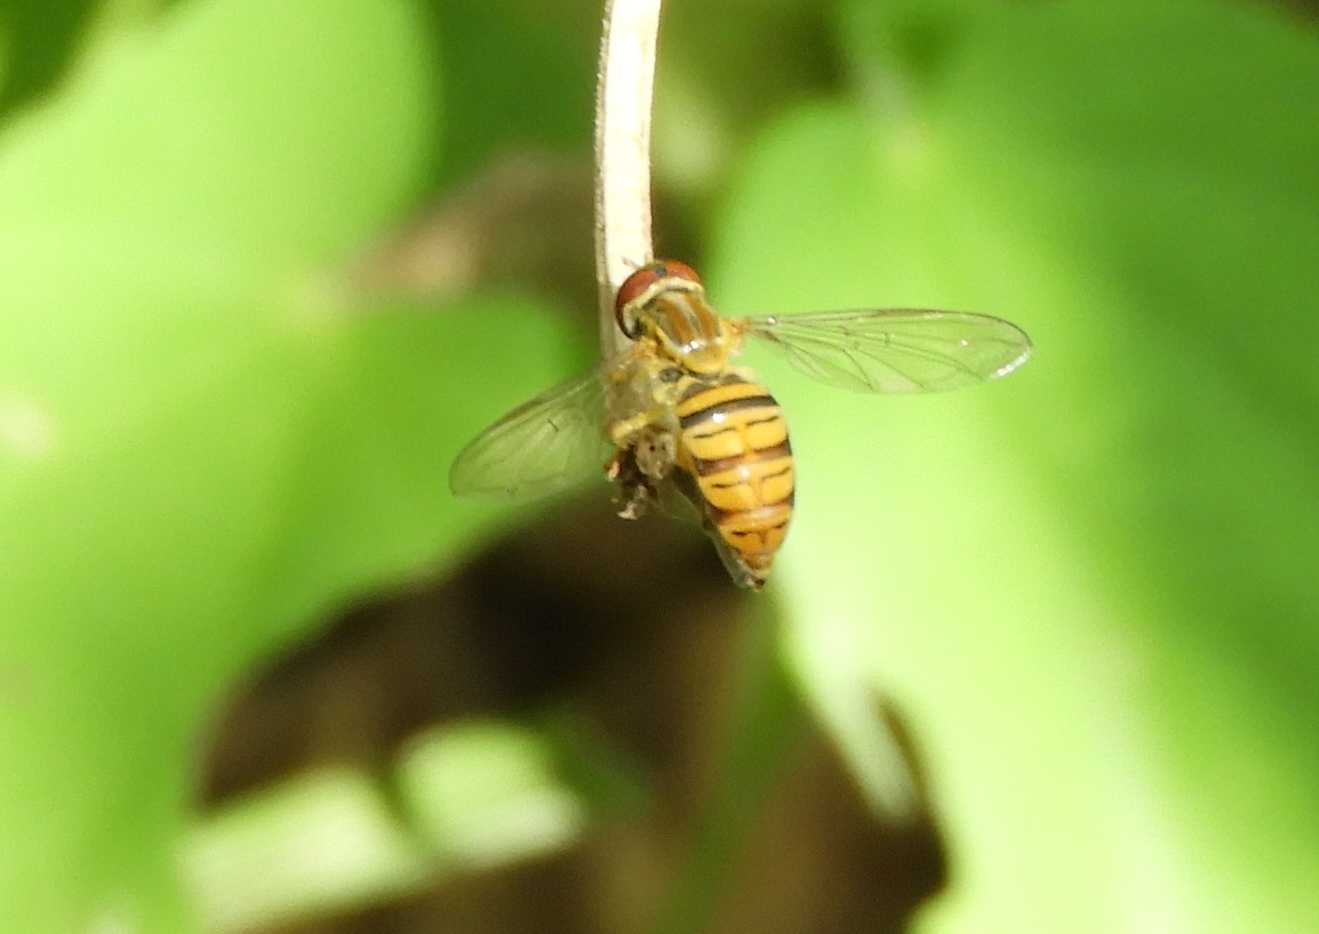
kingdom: Animalia
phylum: Arthropoda
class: Insecta
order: Diptera
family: Syrphidae
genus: Toxomerus
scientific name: Toxomerus politus
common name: Maize calligrapher
